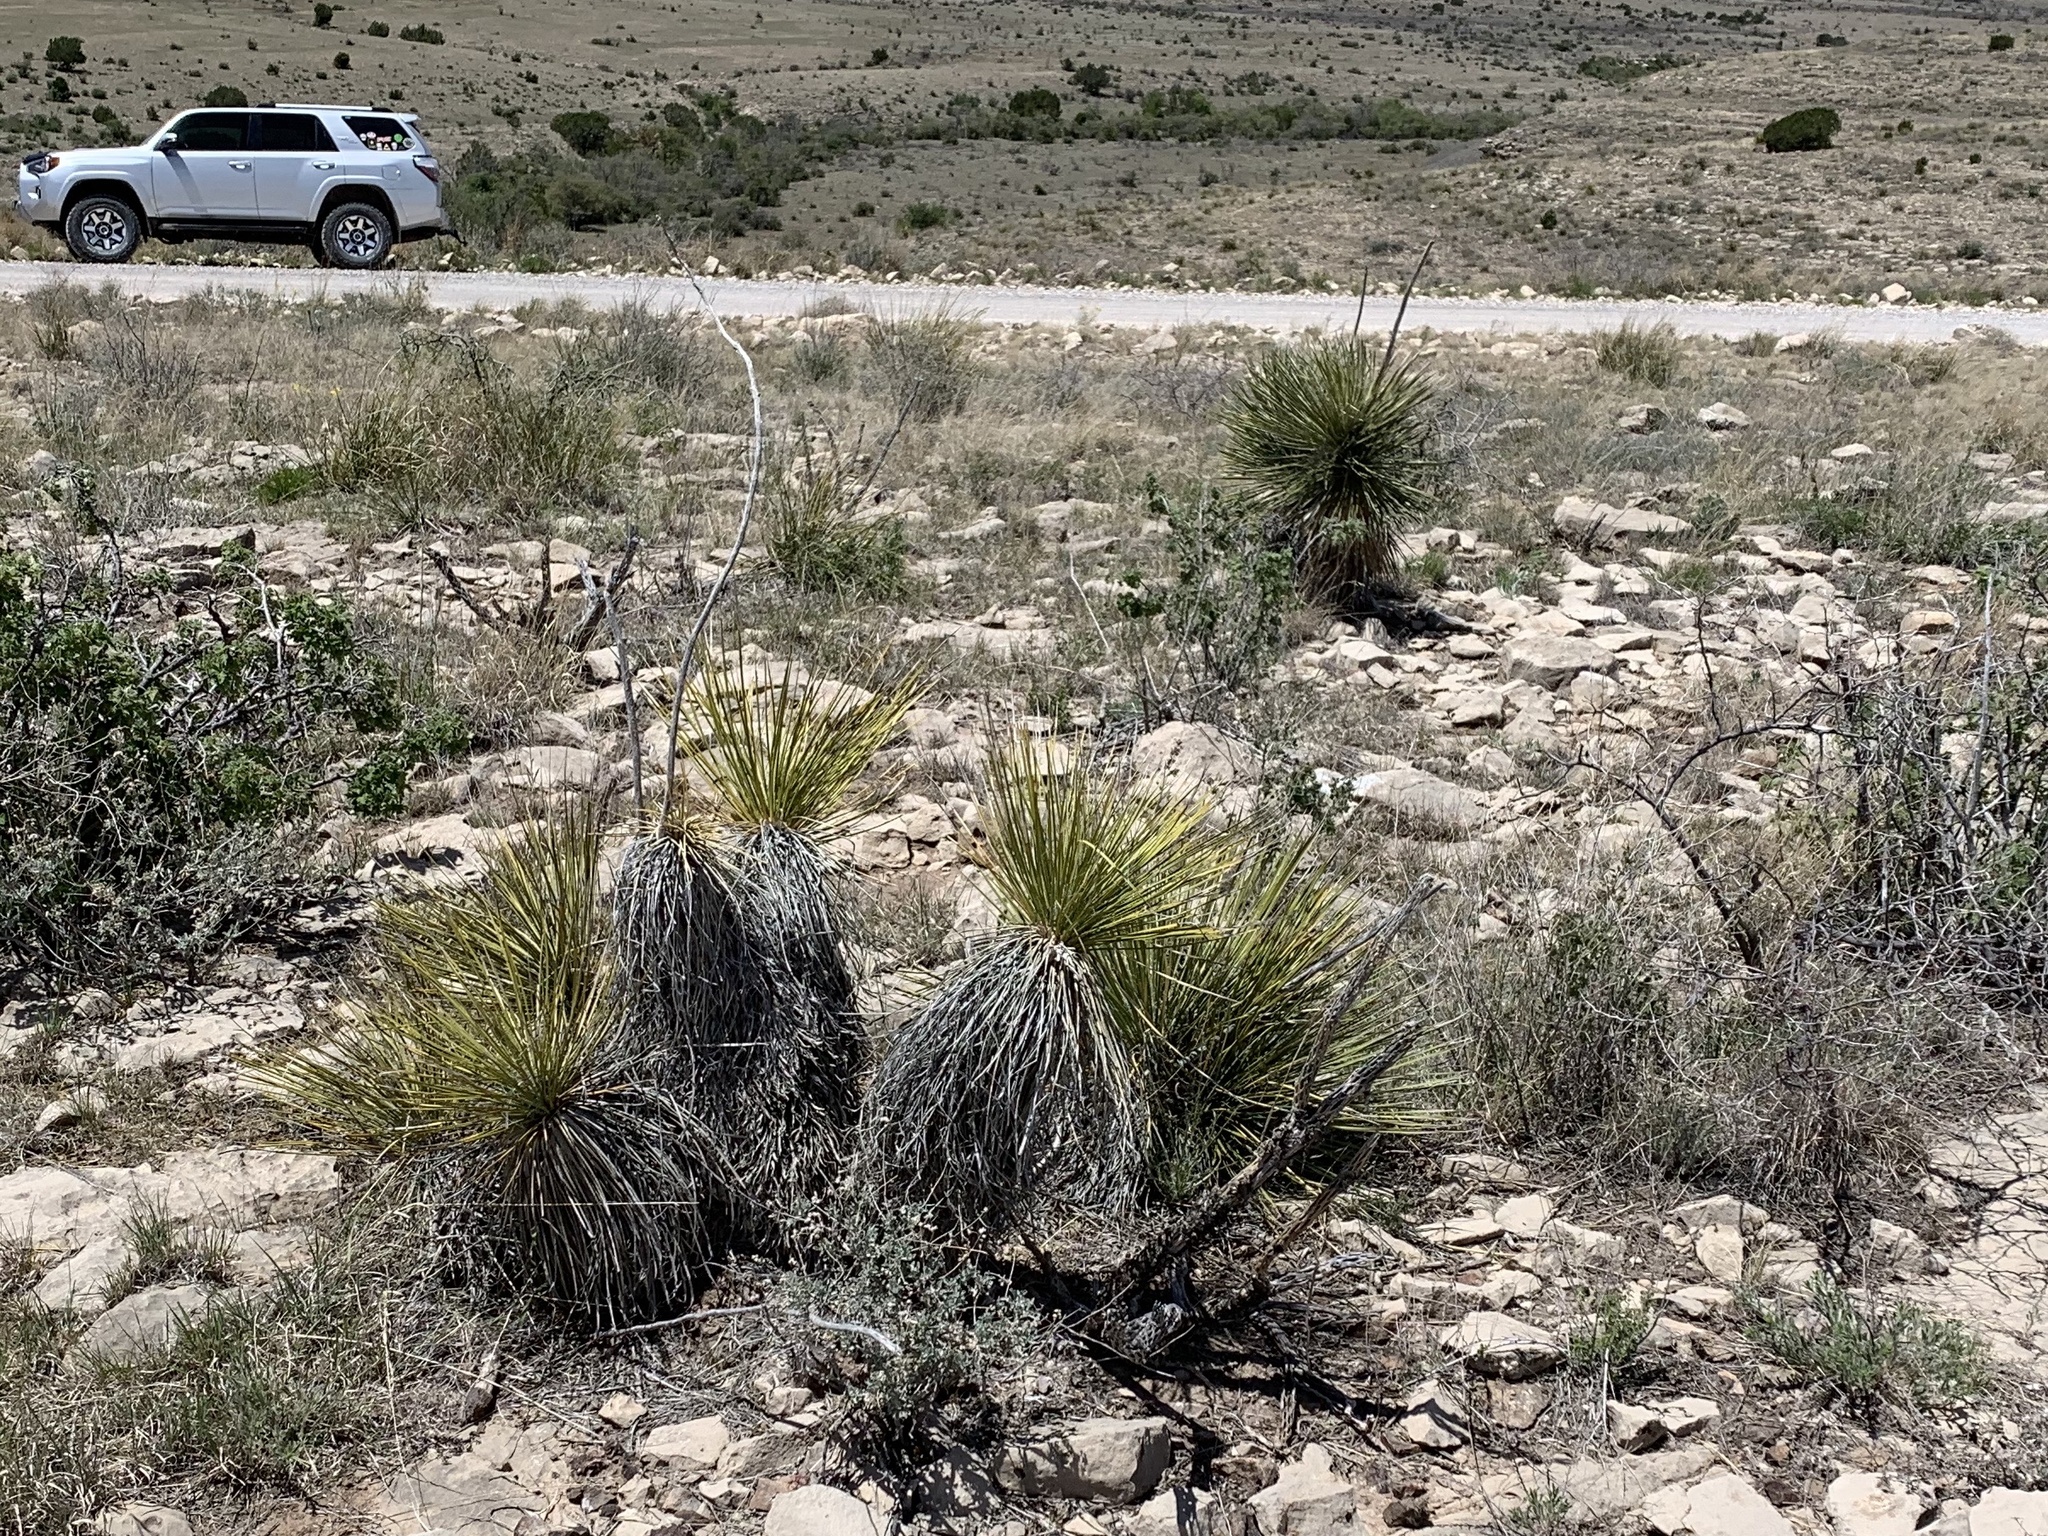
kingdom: Plantae
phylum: Tracheophyta
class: Liliopsida
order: Asparagales
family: Asparagaceae
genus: Yucca
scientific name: Yucca elata
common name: Palmella
